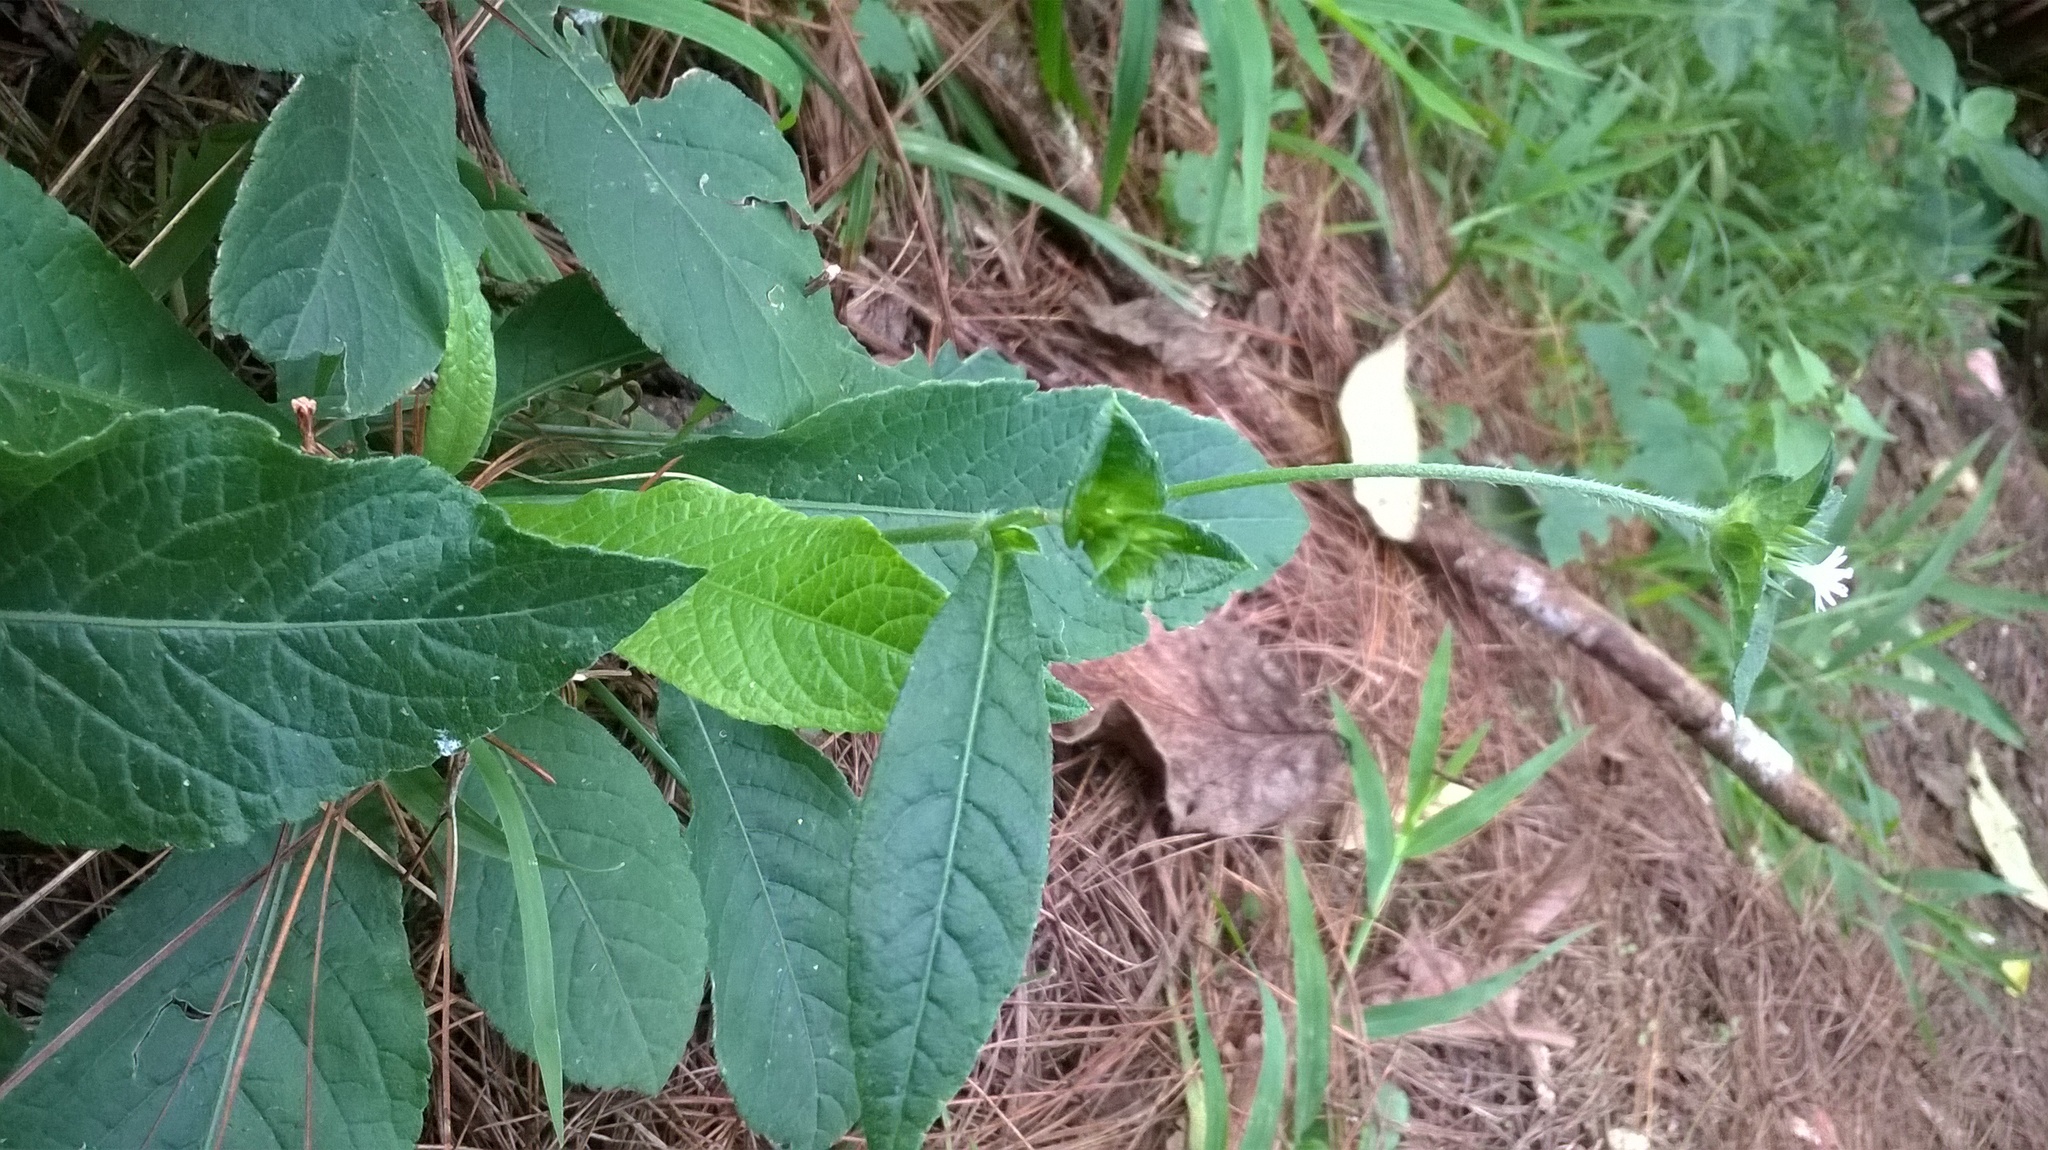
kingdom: Plantae
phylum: Tracheophyta
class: Magnoliopsida
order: Asterales
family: Asteraceae
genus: Elephantopus
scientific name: Elephantopus mollis
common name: Soft elephantsfoot
